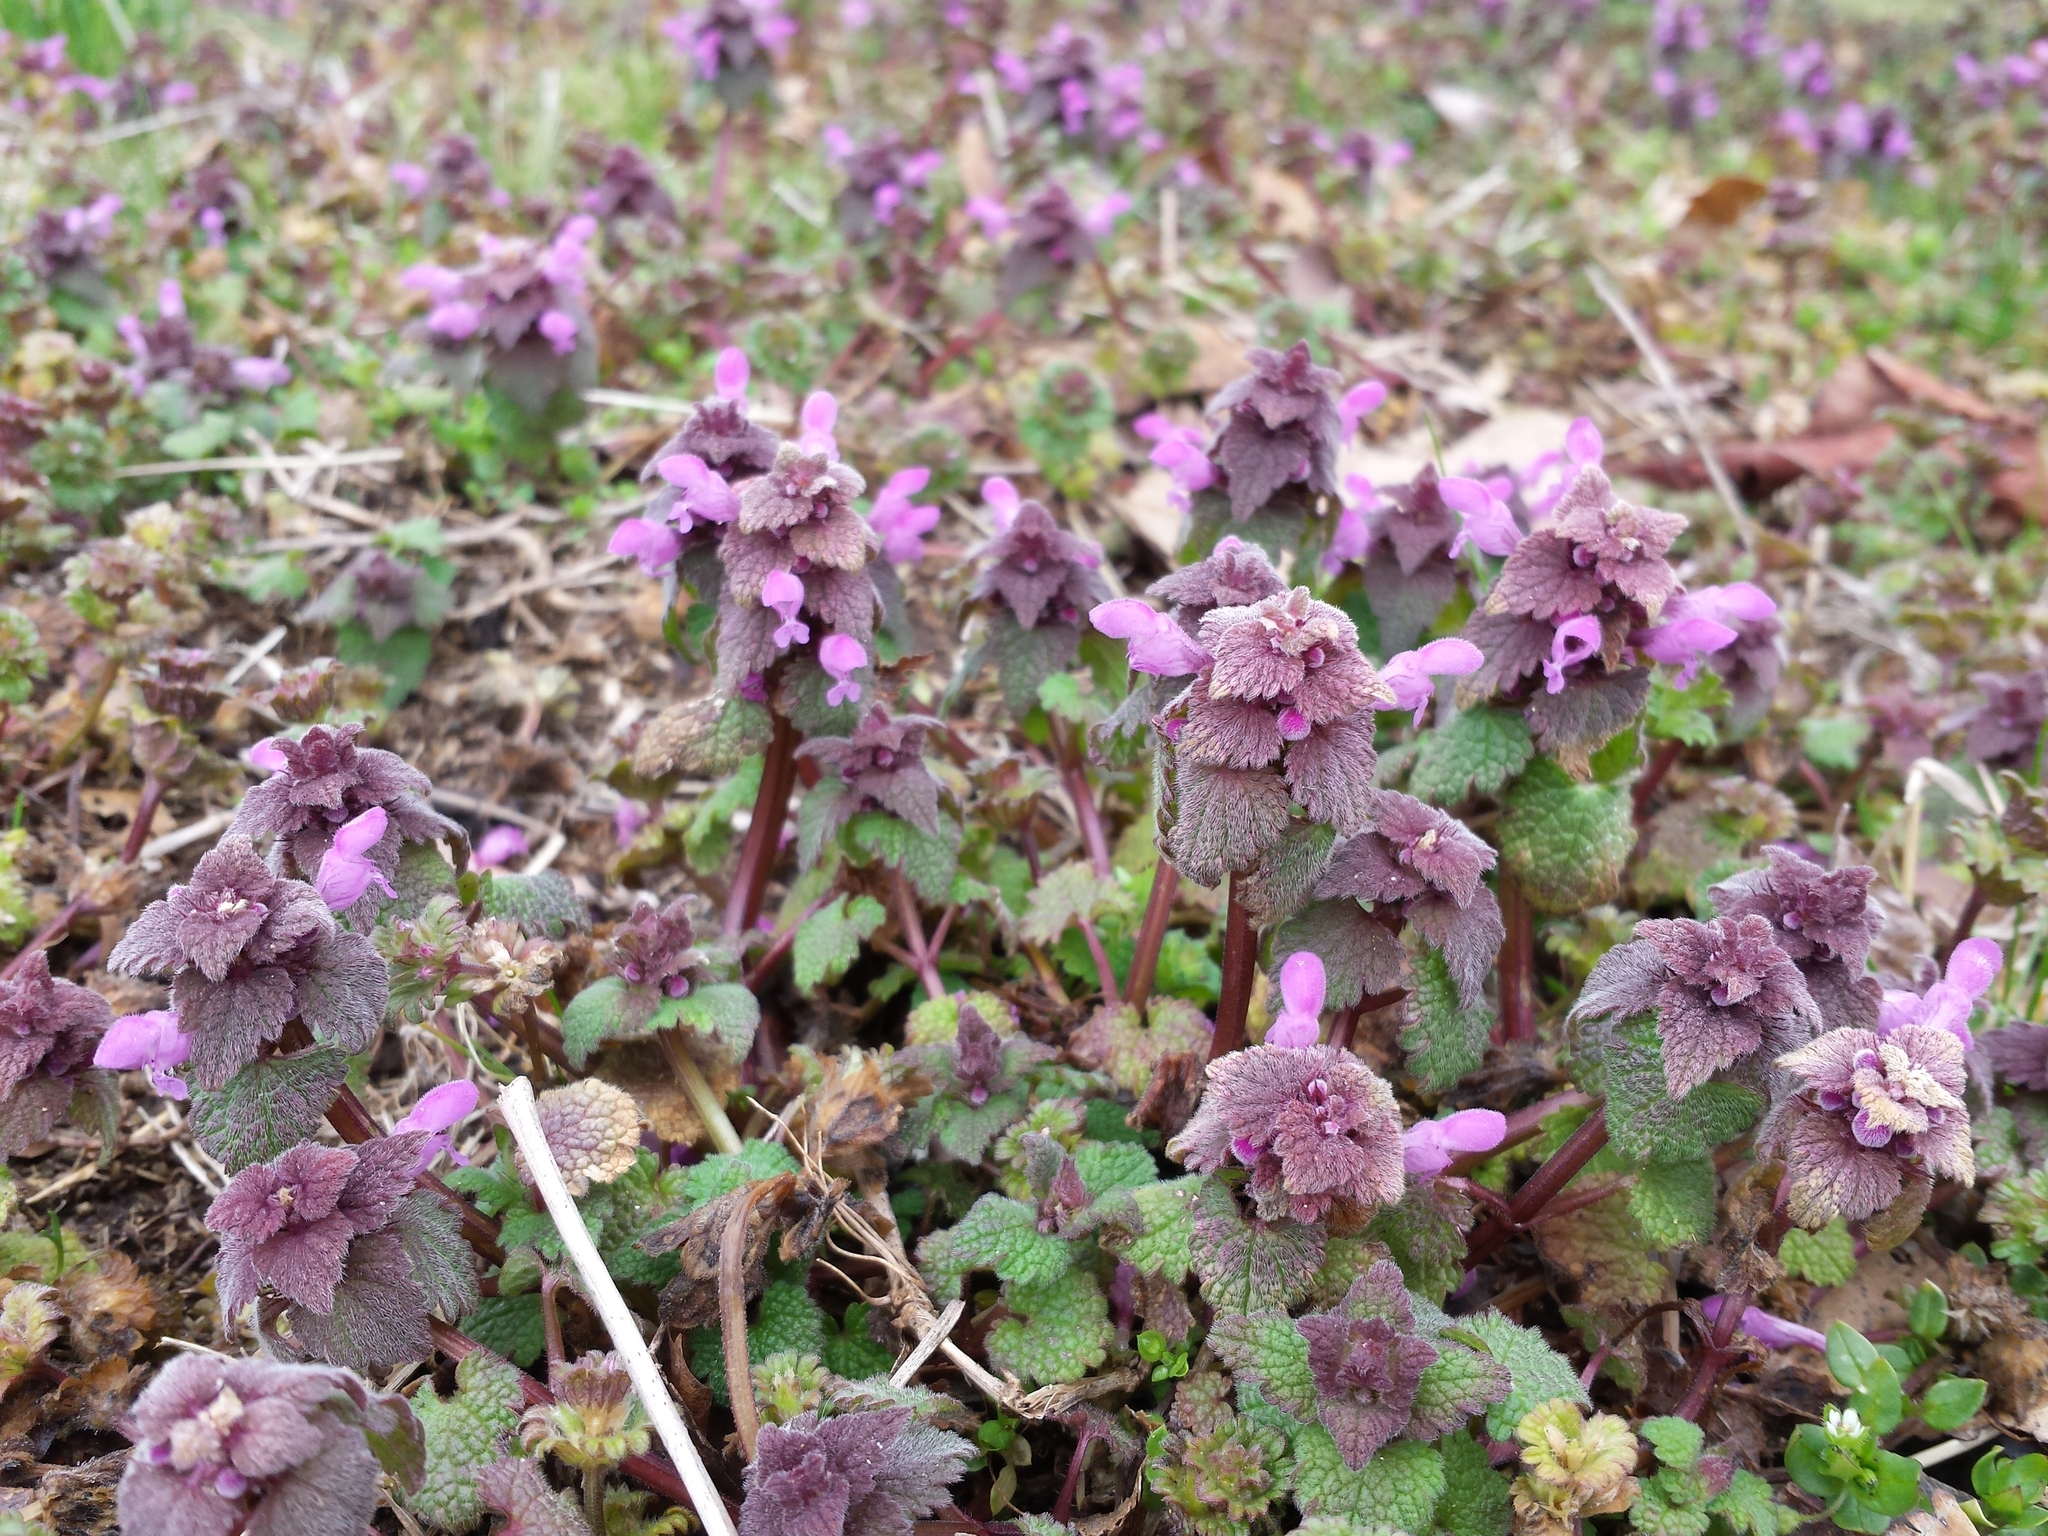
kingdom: Plantae
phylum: Tracheophyta
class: Magnoliopsida
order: Lamiales
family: Lamiaceae
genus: Lamium
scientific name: Lamium purpureum
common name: Red dead-nettle
